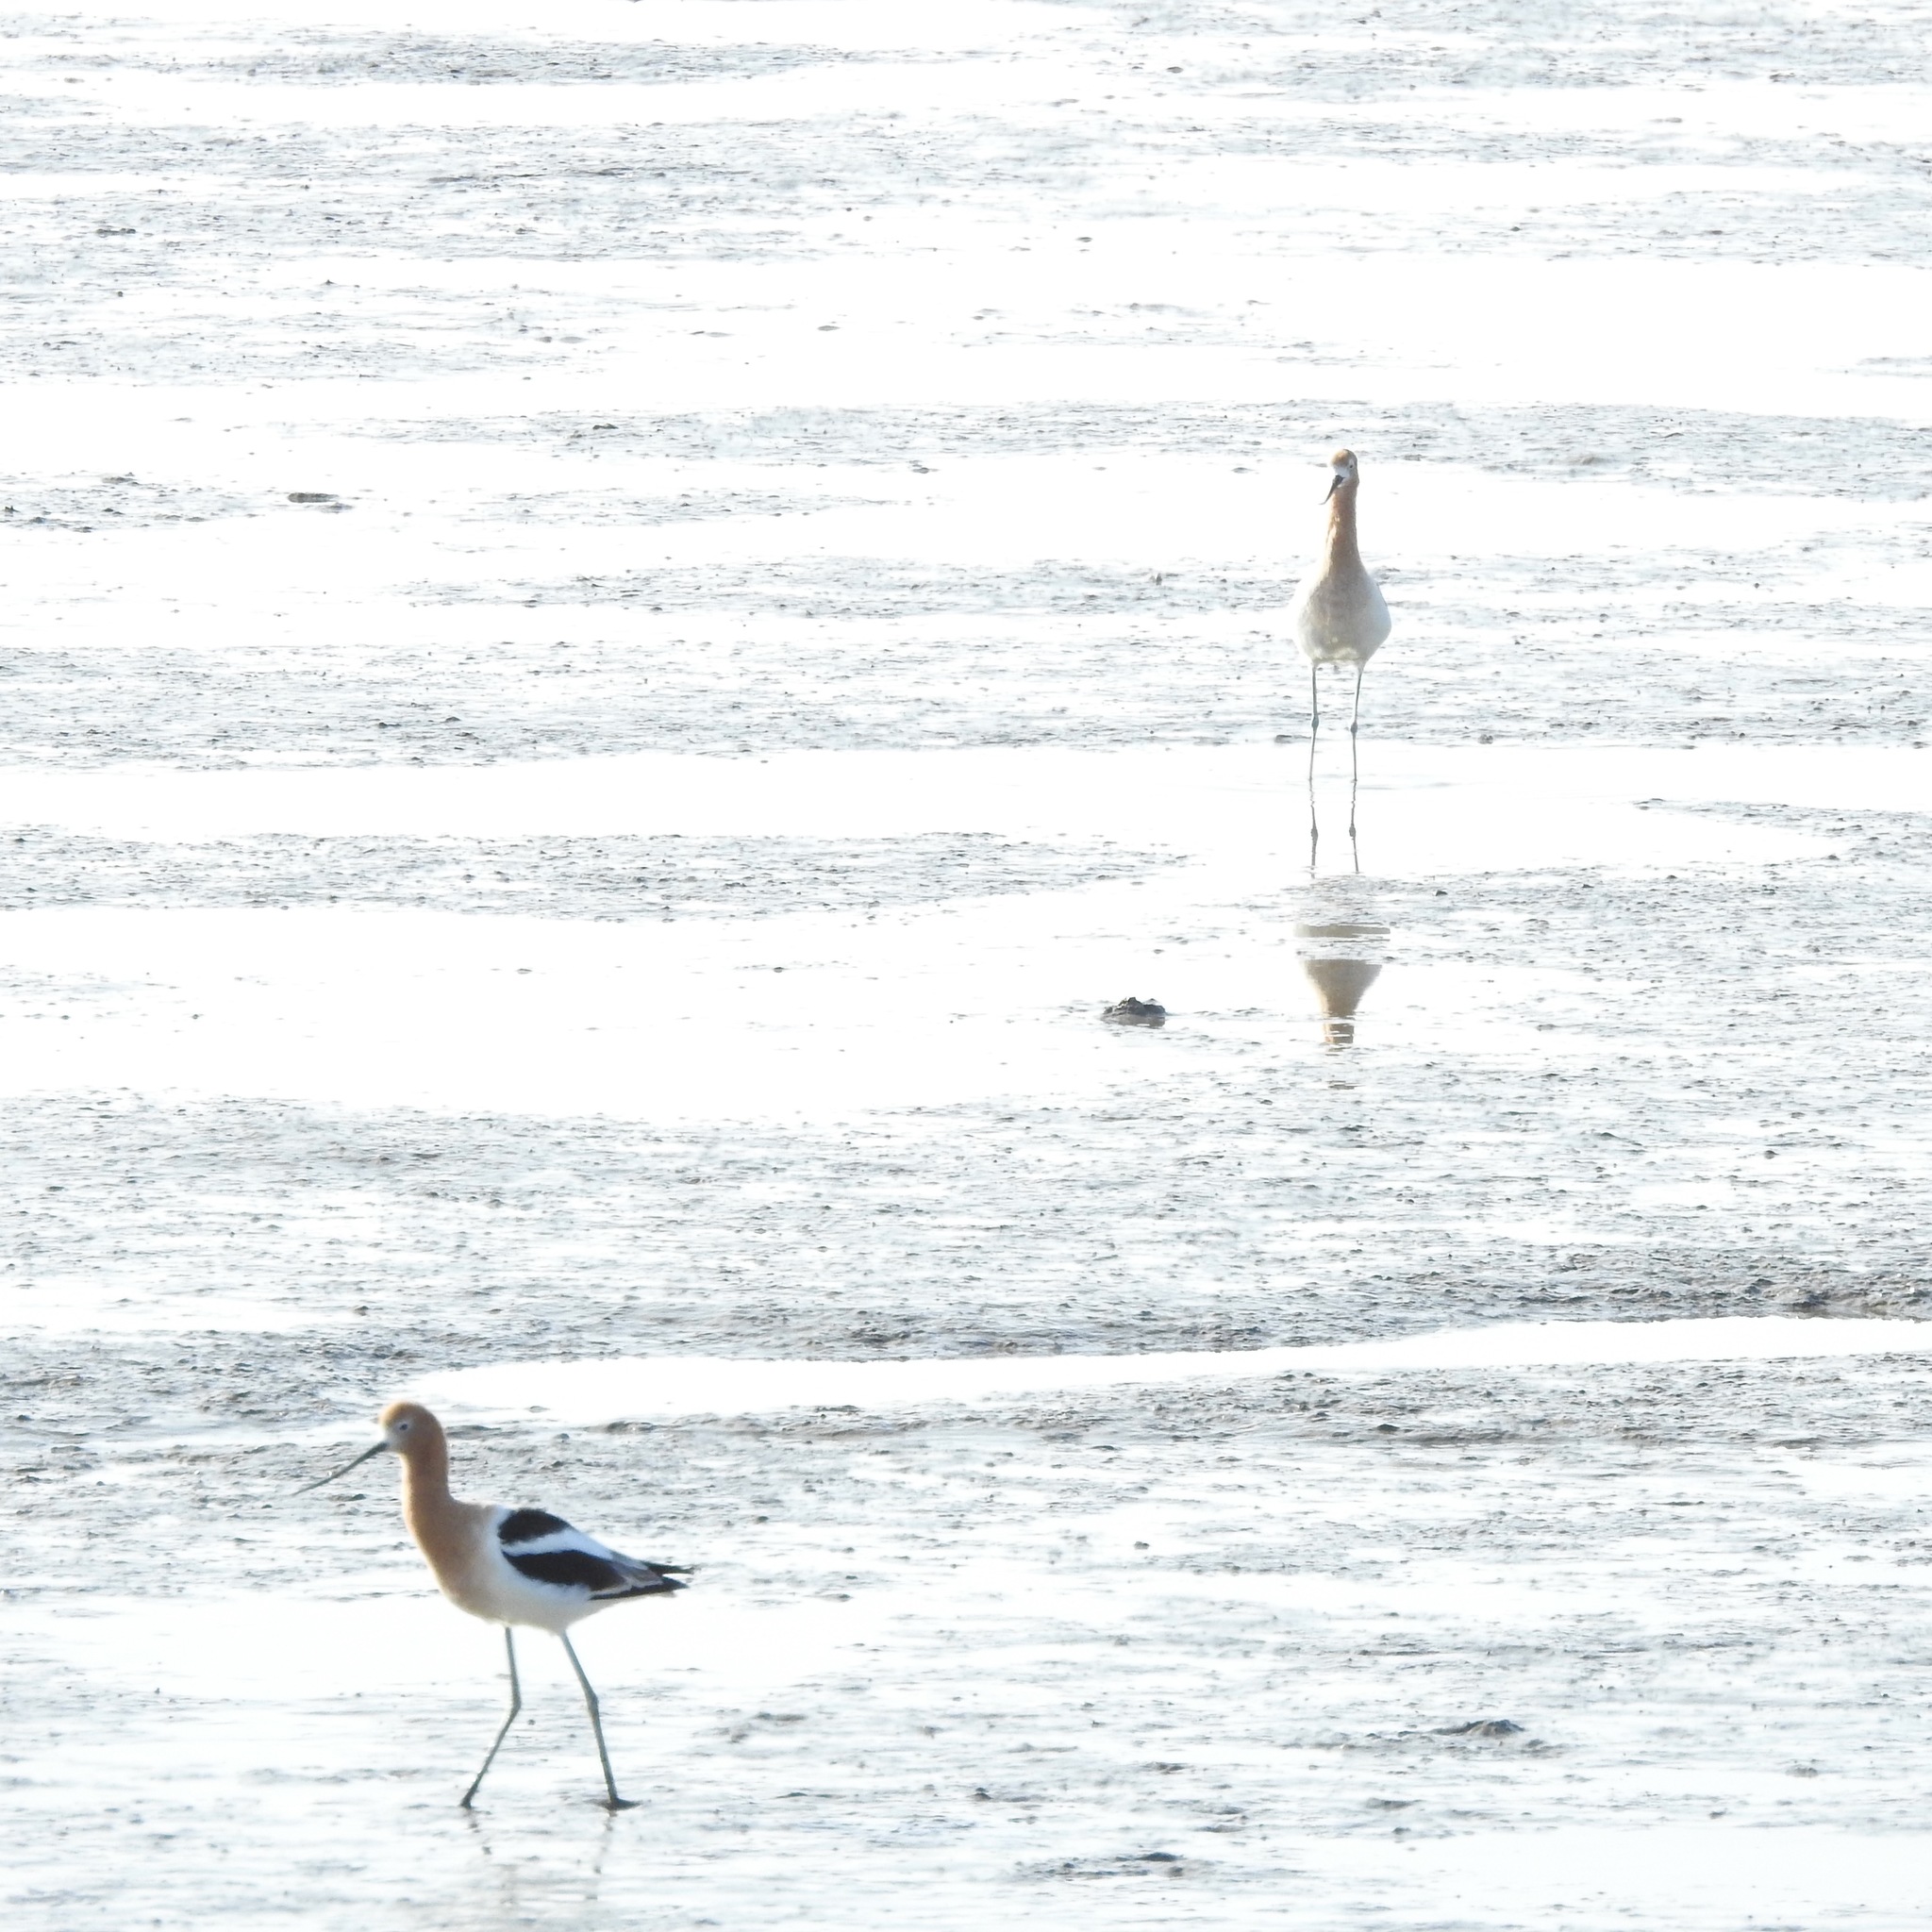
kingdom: Animalia
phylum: Chordata
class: Aves
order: Charadriiformes
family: Recurvirostridae
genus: Recurvirostra
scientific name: Recurvirostra americana
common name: American avocet
